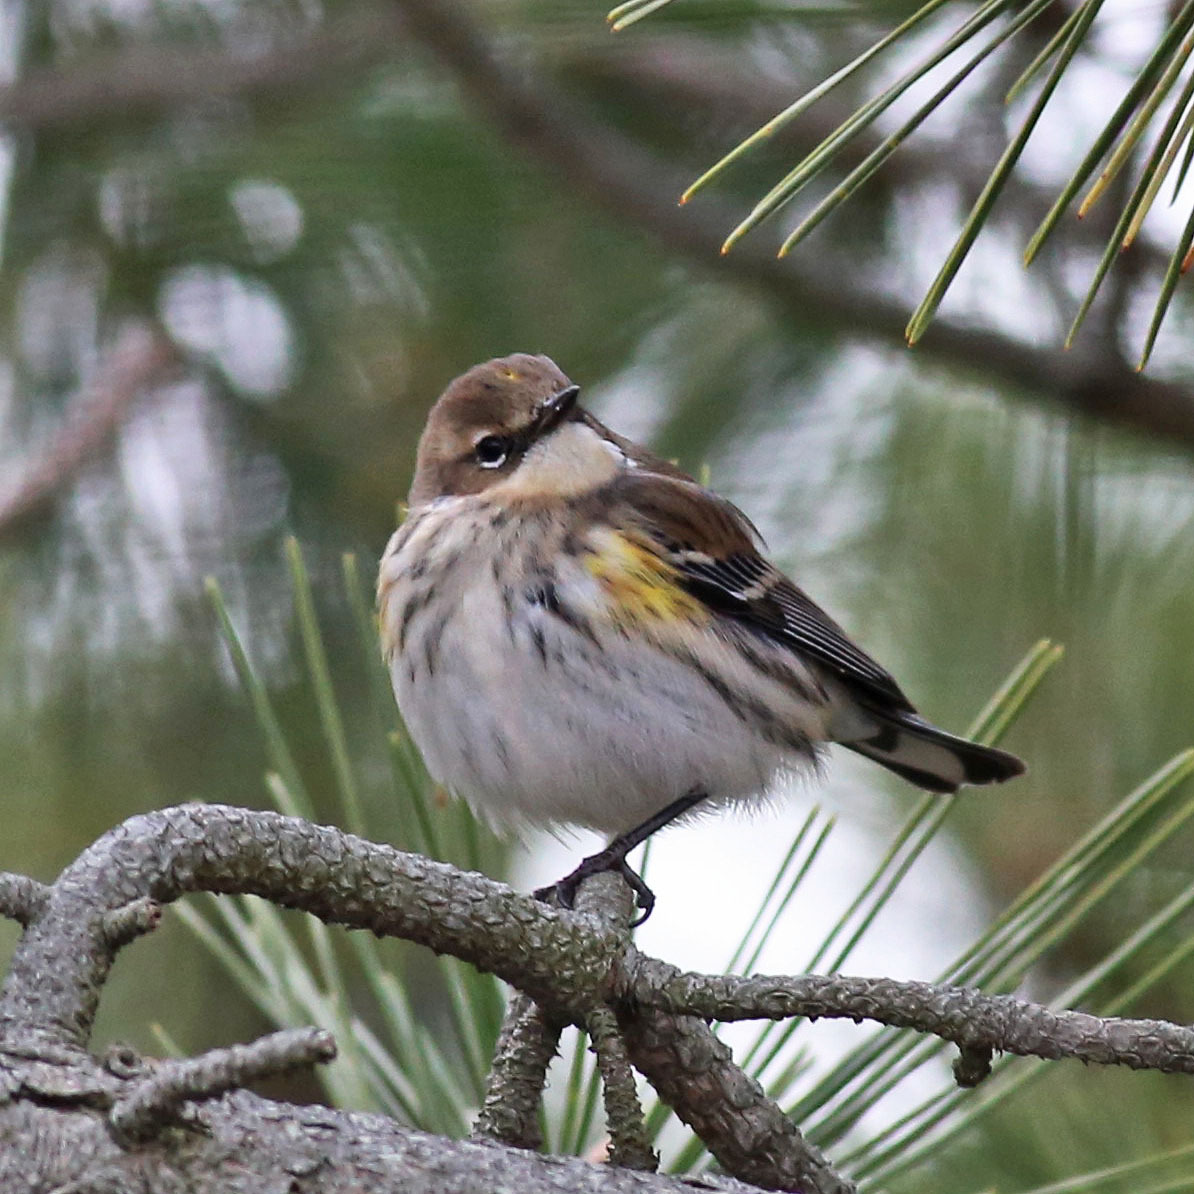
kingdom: Animalia
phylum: Chordata
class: Aves
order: Passeriformes
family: Parulidae
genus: Setophaga
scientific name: Setophaga coronata
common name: Myrtle warbler
